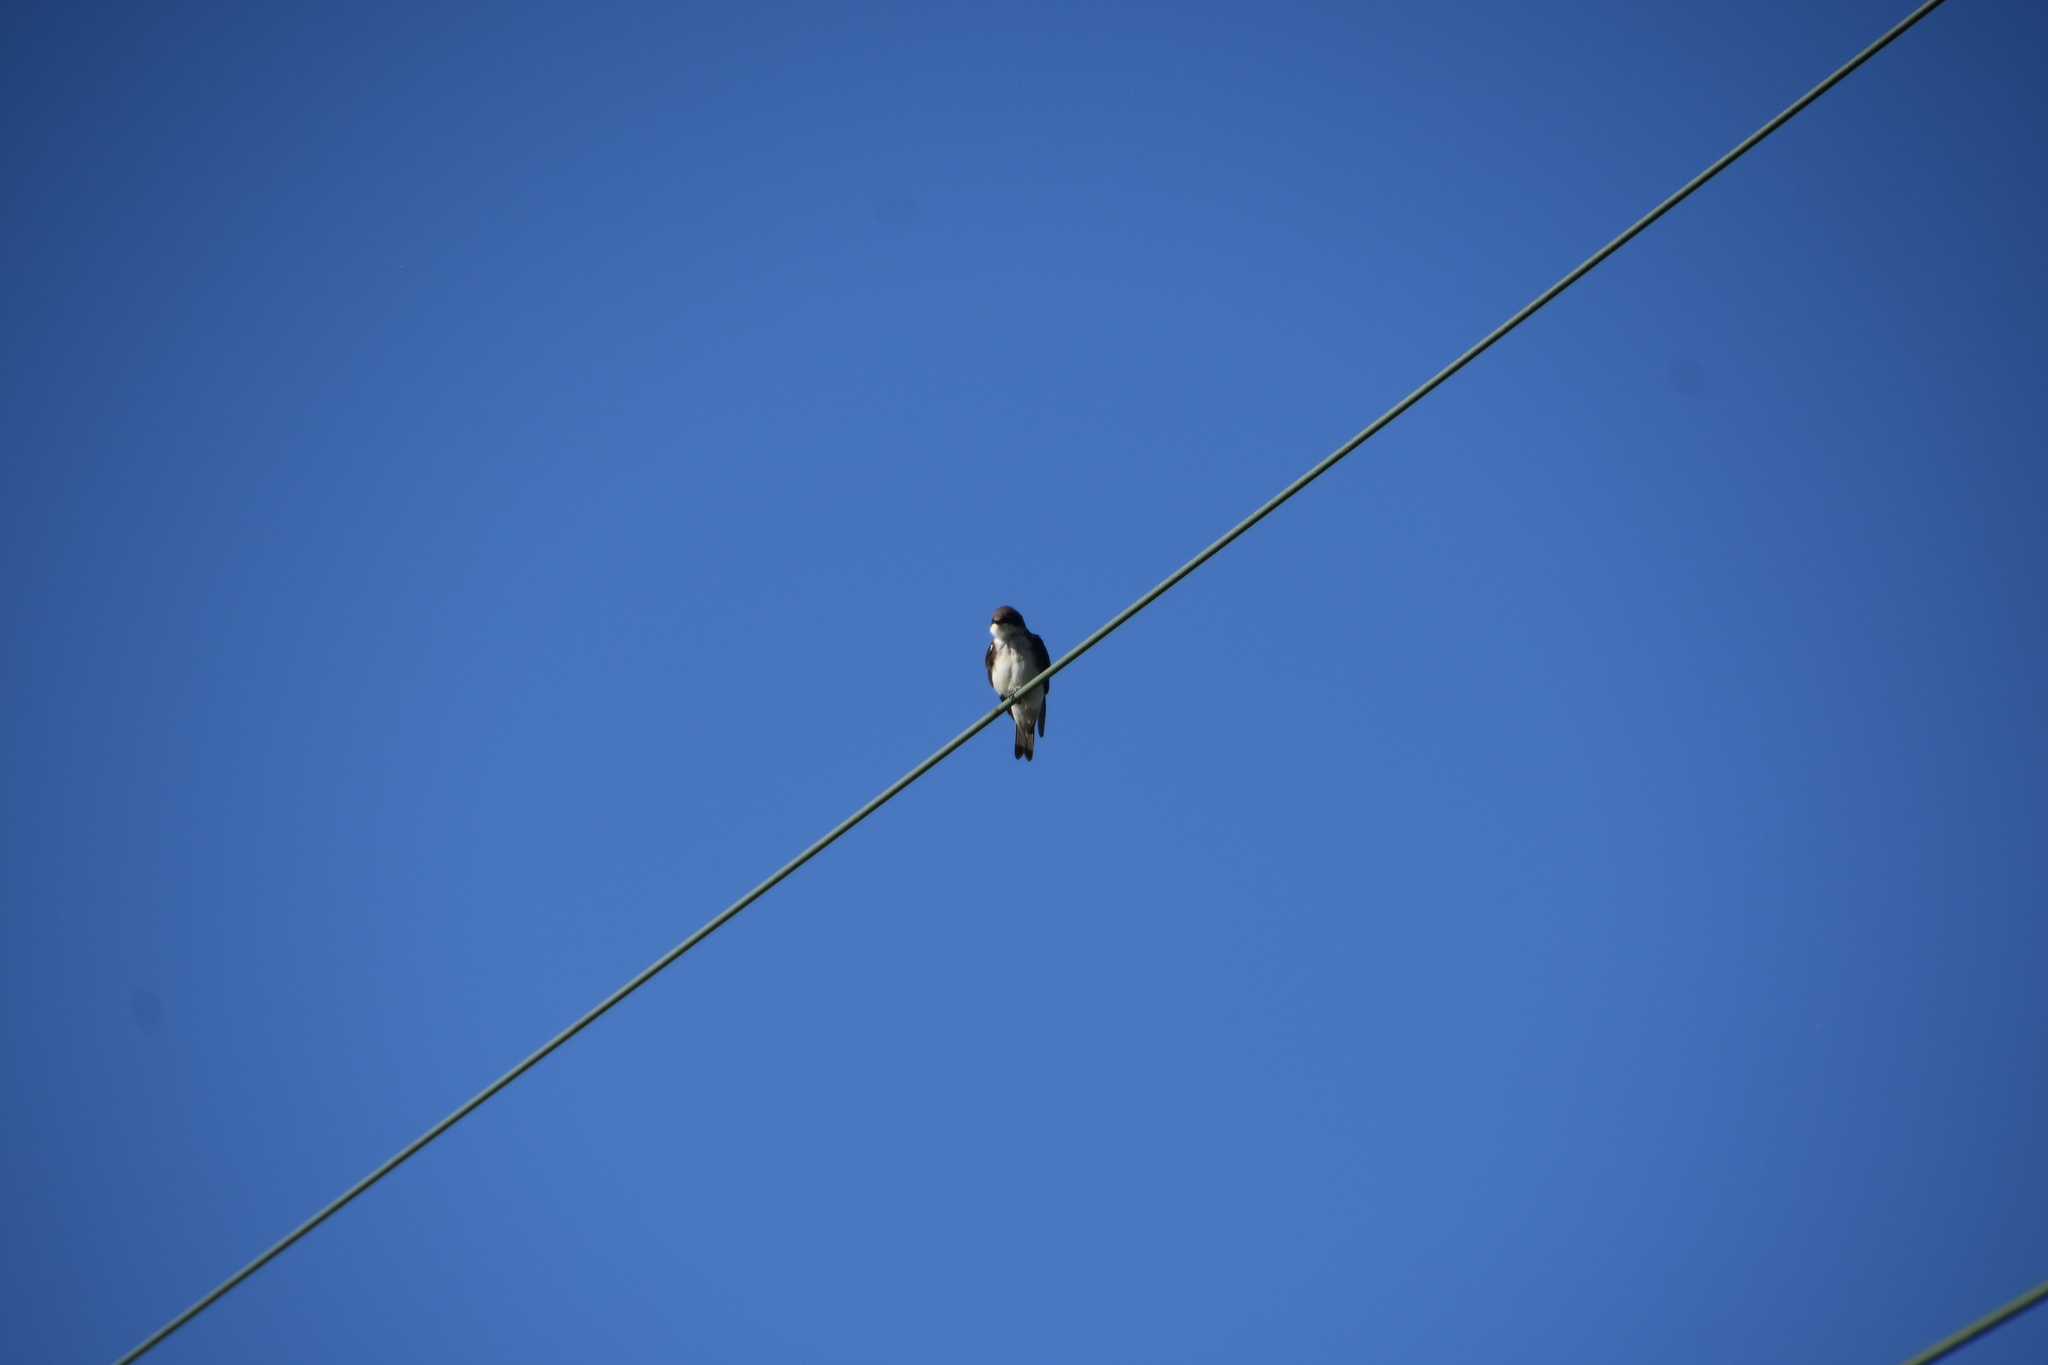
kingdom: Animalia
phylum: Chordata
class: Aves
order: Passeriformes
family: Hirundinidae
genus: Tachycineta
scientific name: Tachycineta bicolor
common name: Tree swallow
